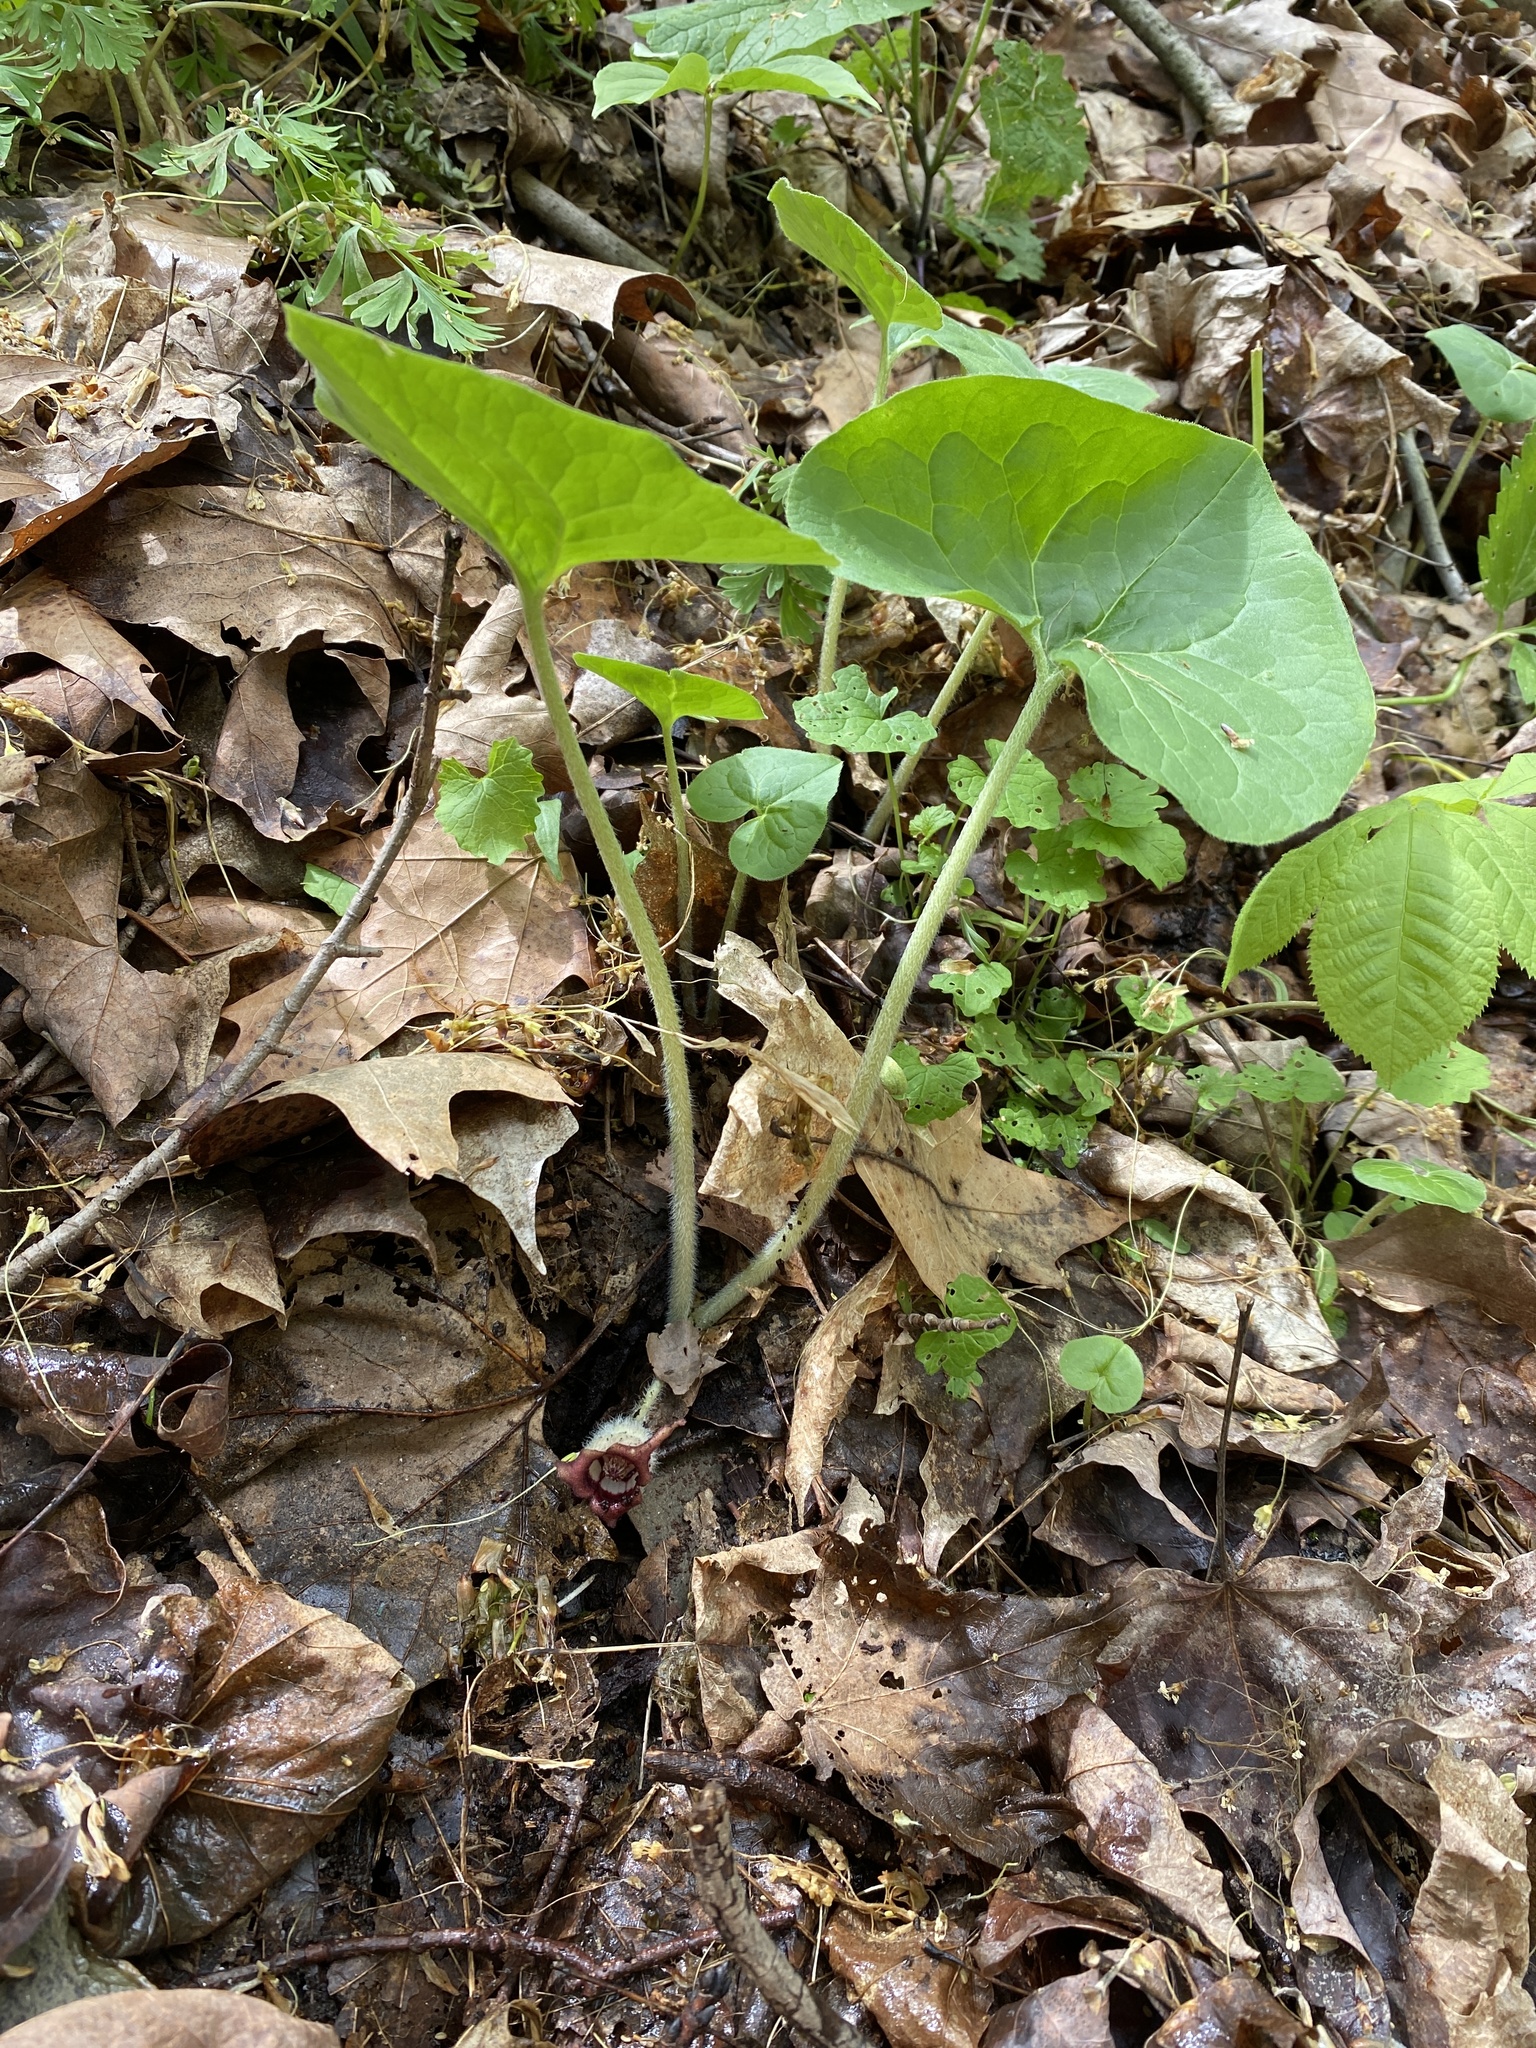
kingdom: Plantae
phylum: Tracheophyta
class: Magnoliopsida
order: Piperales
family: Aristolochiaceae
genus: Asarum
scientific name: Asarum canadense
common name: Wild ginger
